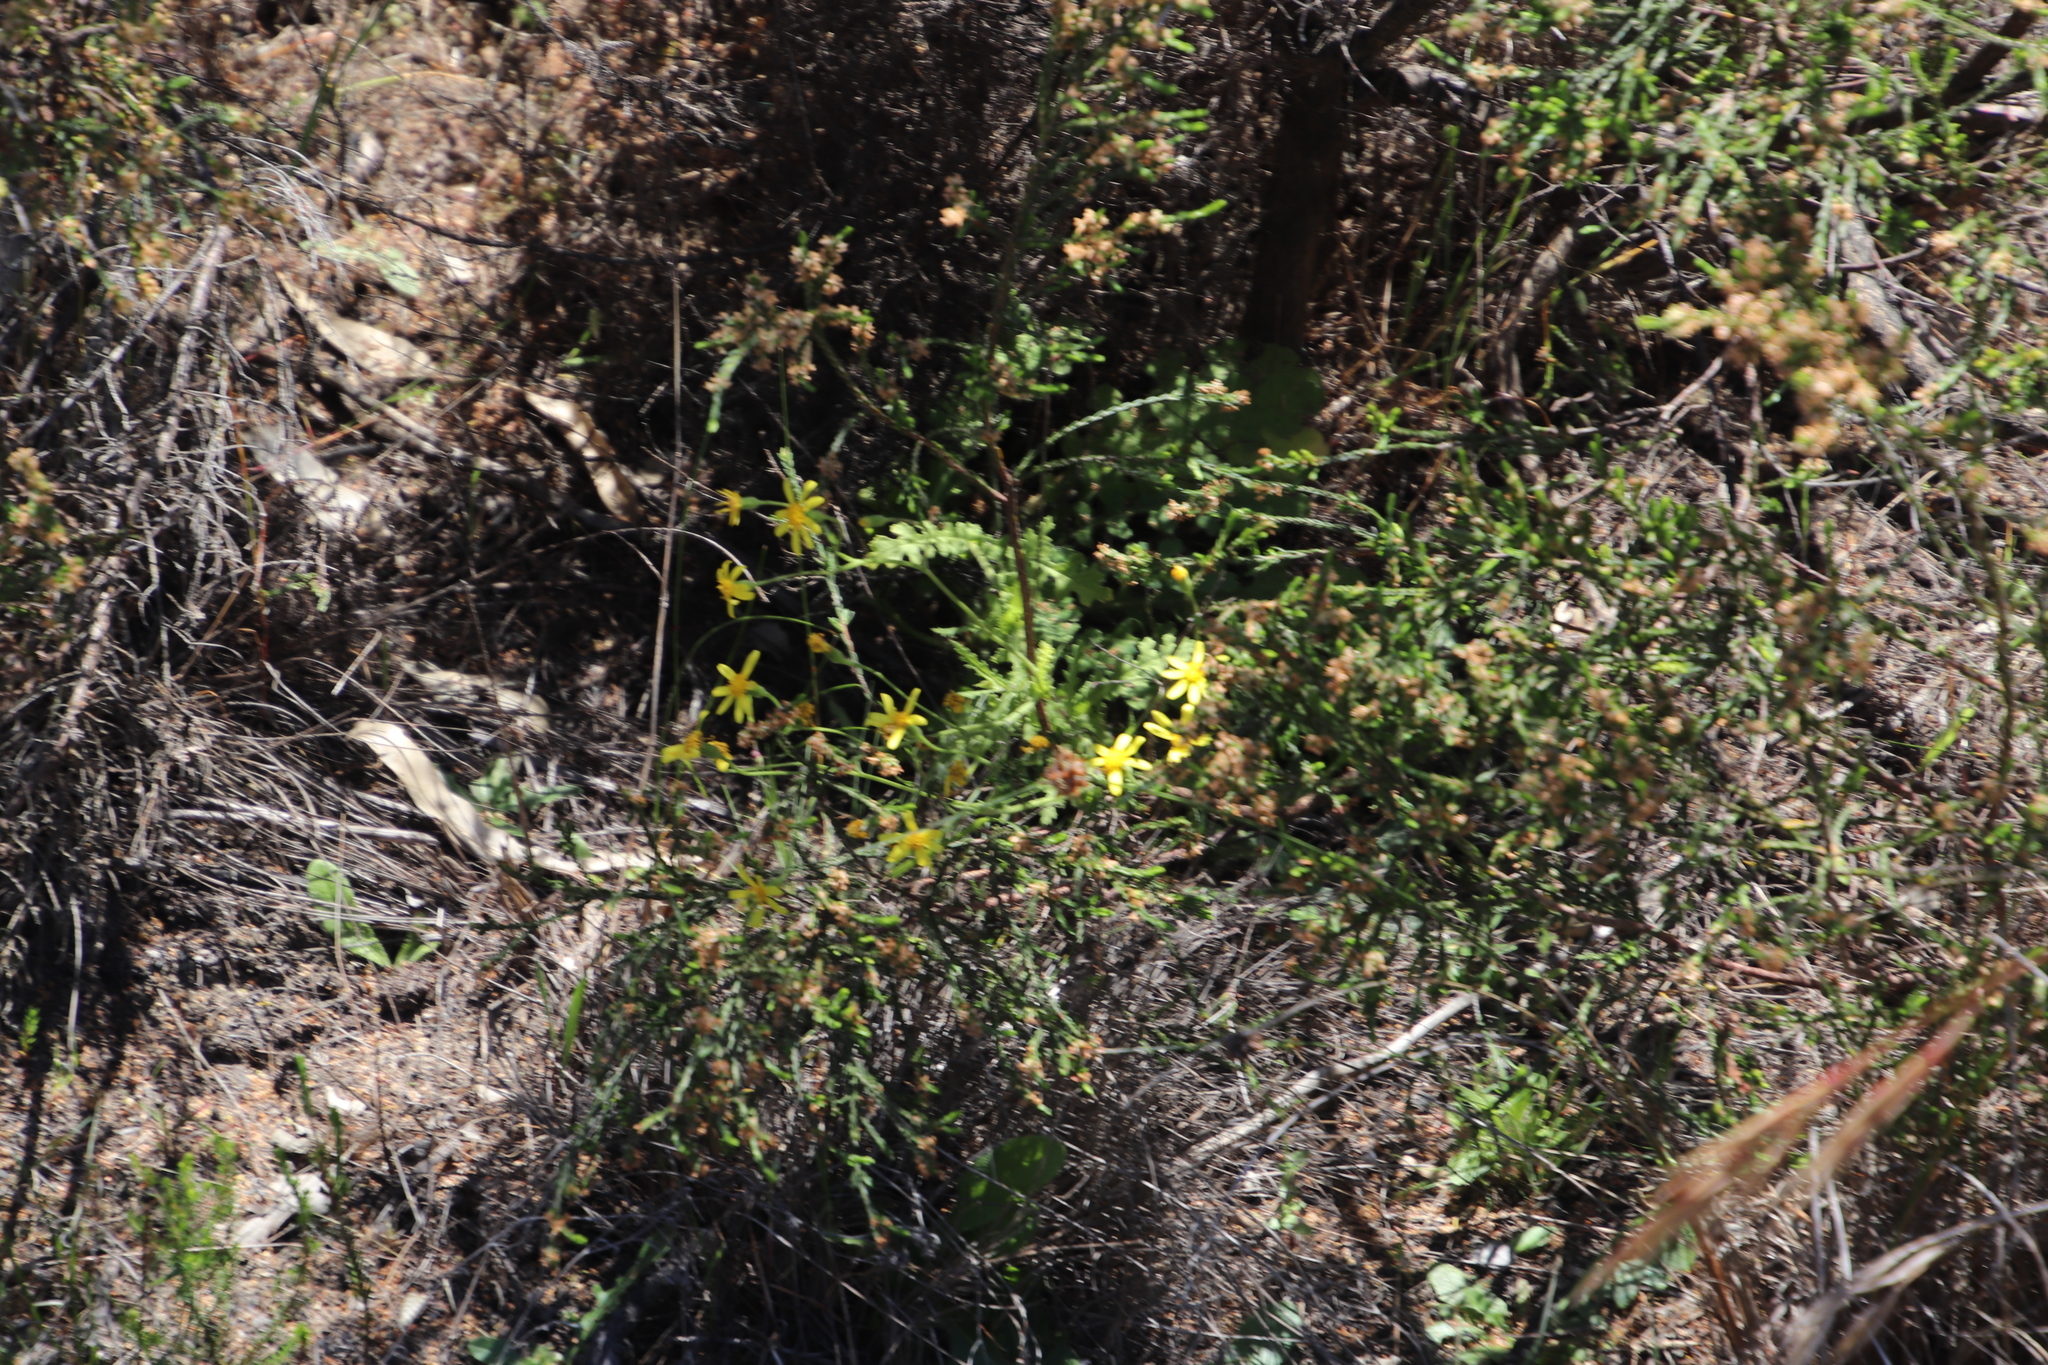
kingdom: Plantae
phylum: Tracheophyta
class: Magnoliopsida
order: Asterales
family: Asteraceae
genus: Senecio
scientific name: Senecio hastatus
